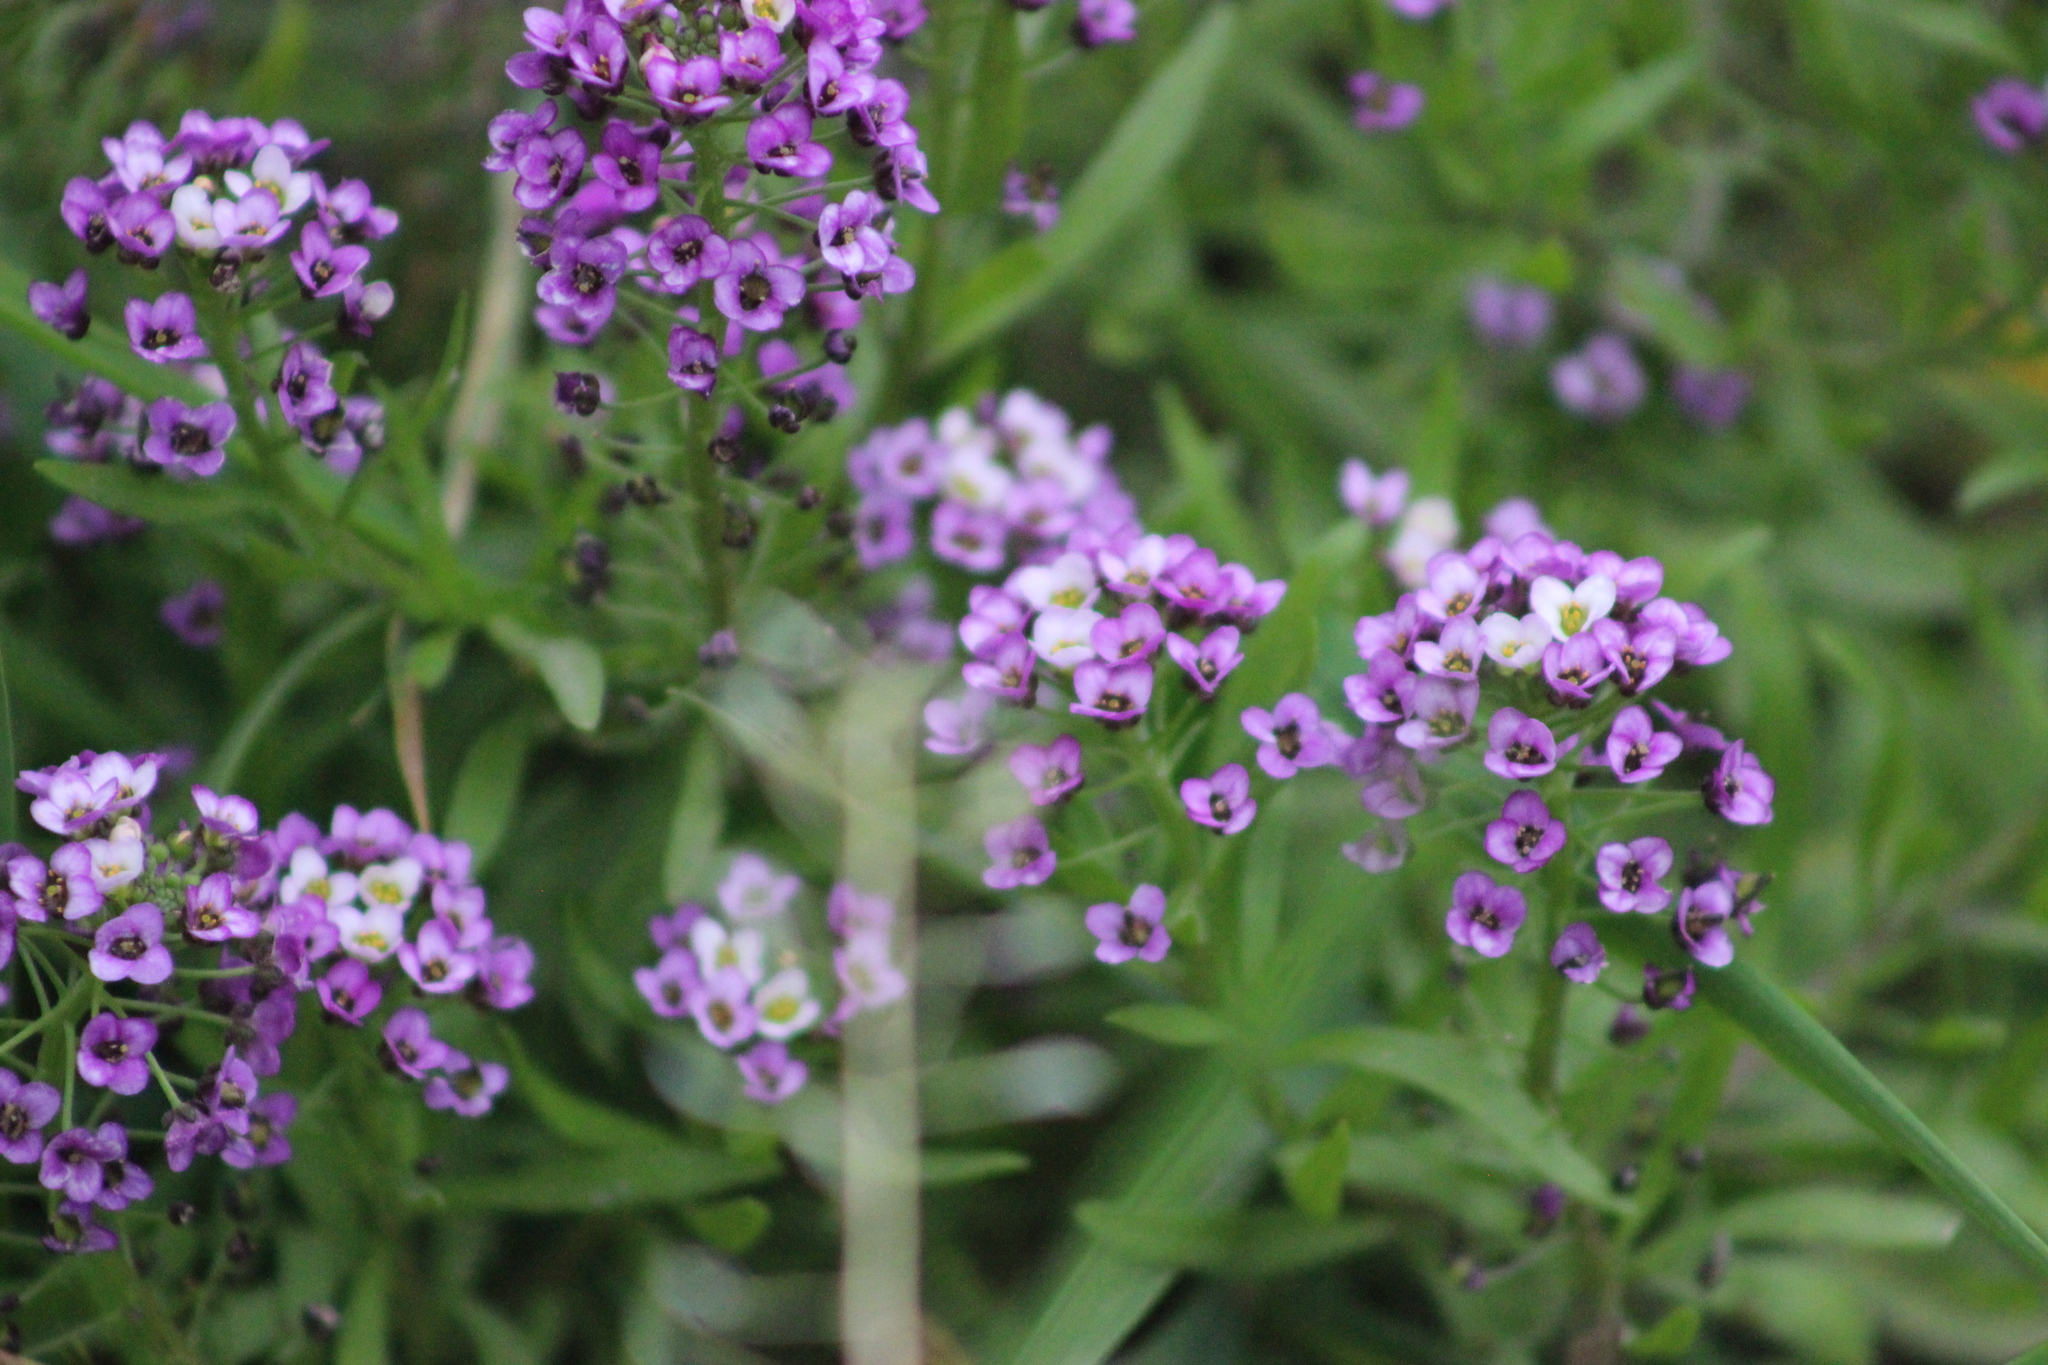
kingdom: Plantae
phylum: Tracheophyta
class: Magnoliopsida
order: Brassicales
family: Brassicaceae
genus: Lobularia
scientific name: Lobularia maritima
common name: Sweet alison
